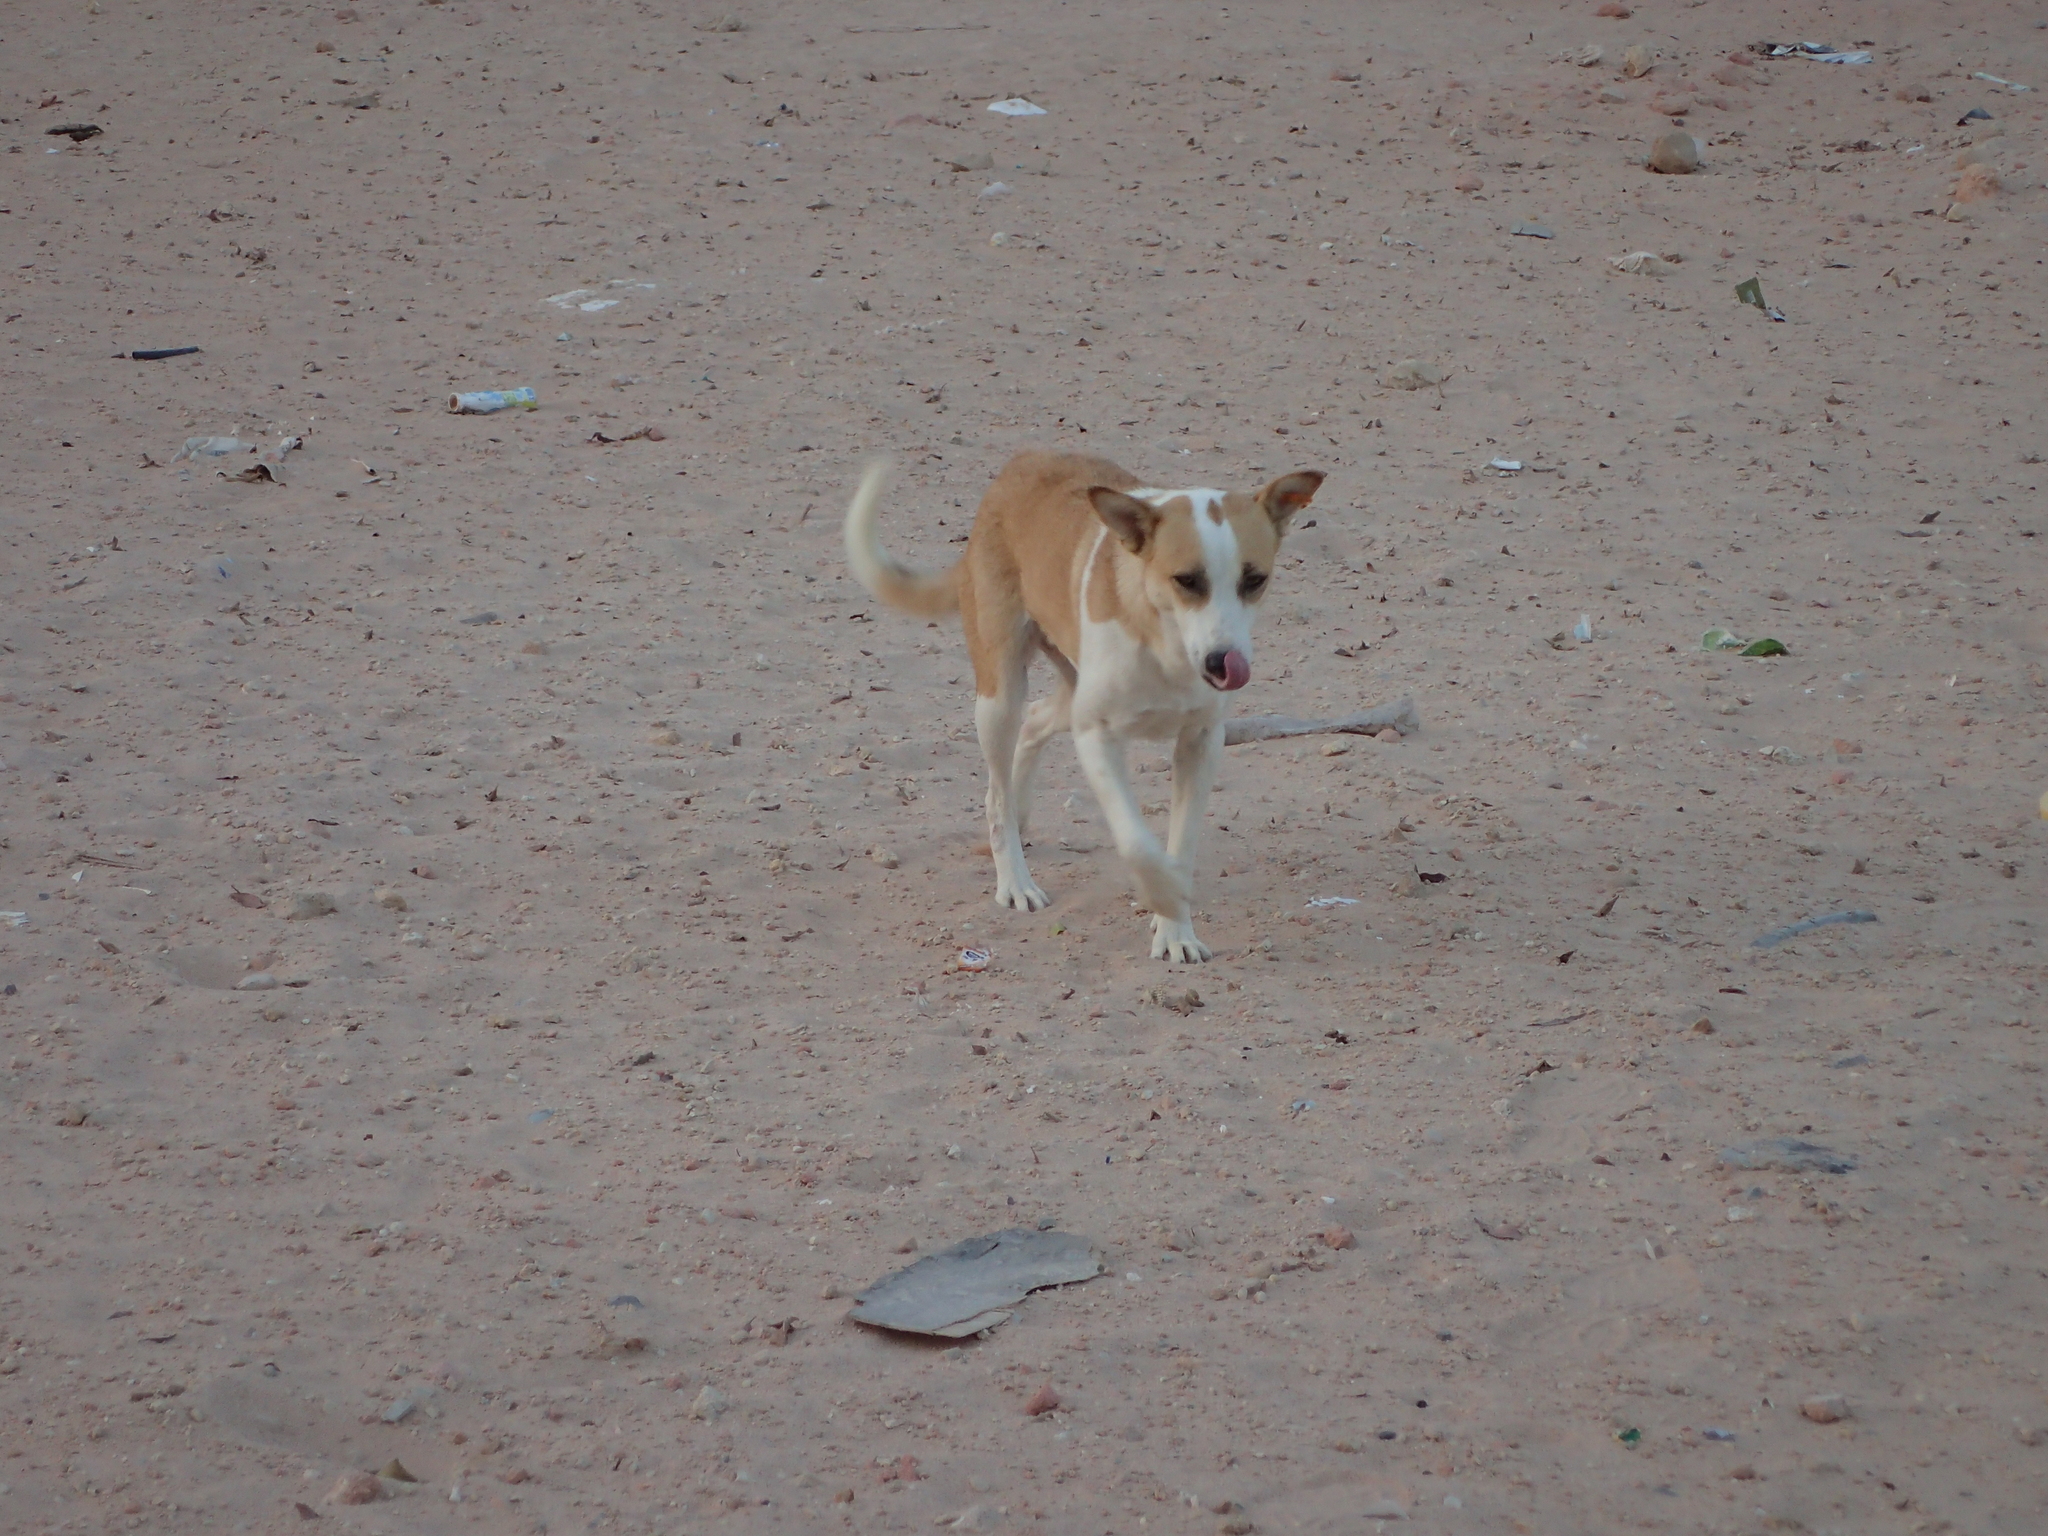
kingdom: Animalia
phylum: Chordata
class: Mammalia
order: Carnivora
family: Canidae
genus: Canis
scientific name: Canis lupus
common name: Gray wolf
